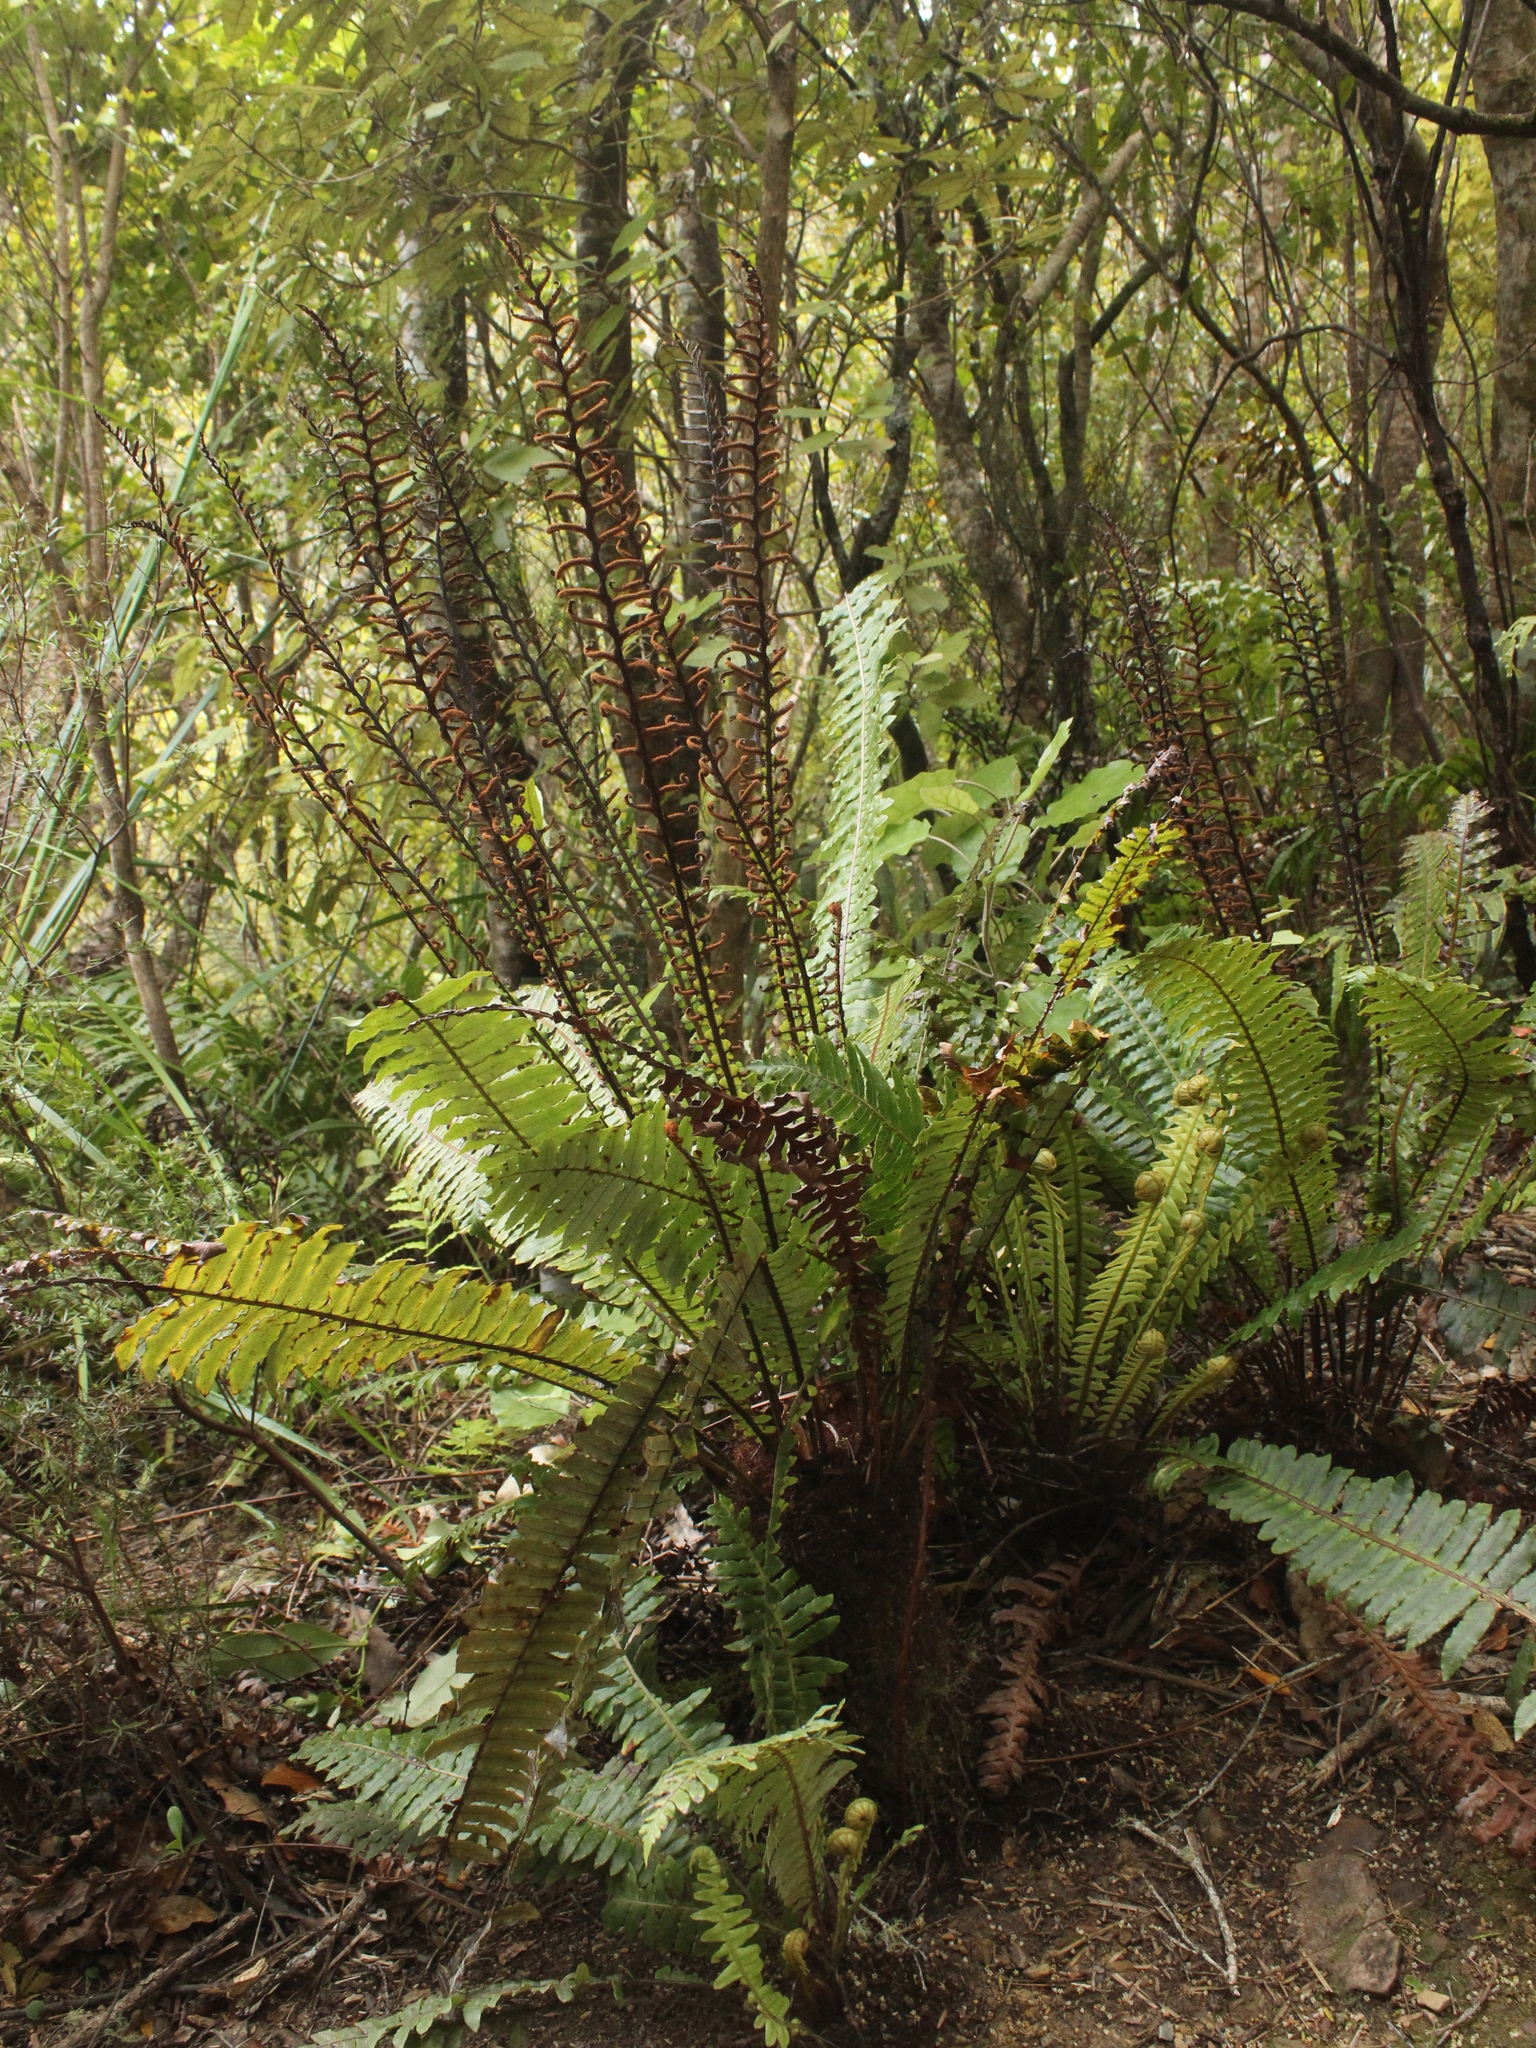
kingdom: Plantae
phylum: Tracheophyta
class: Polypodiopsida
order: Polypodiales
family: Blechnaceae
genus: Lomaria
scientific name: Lomaria discolor
